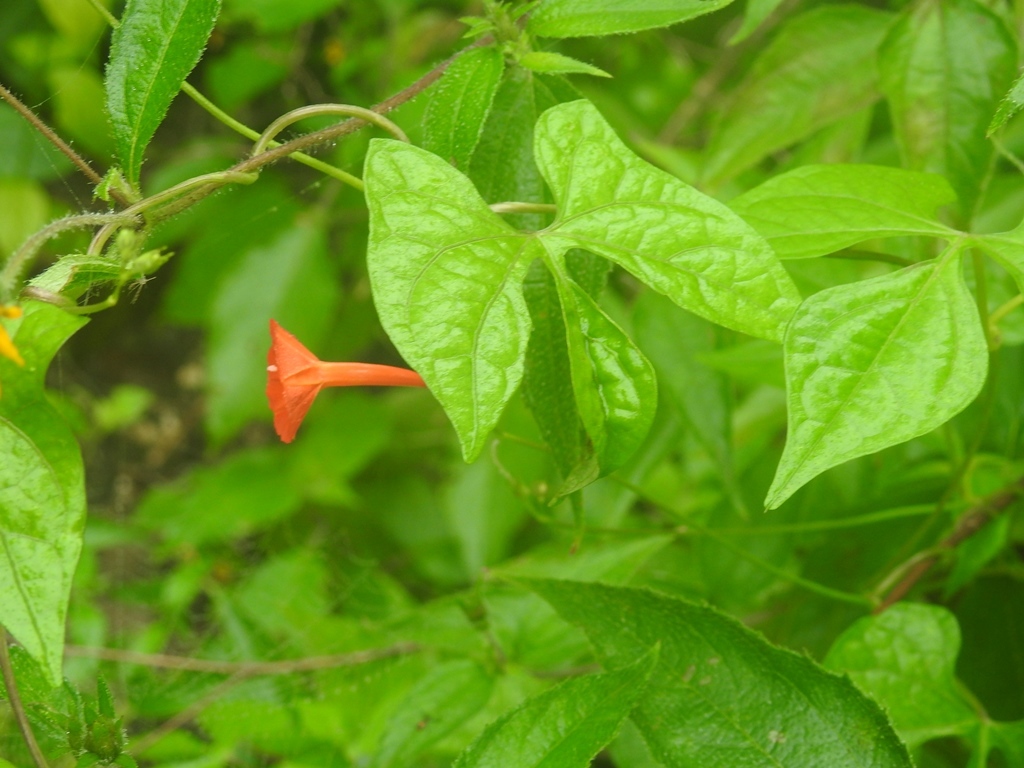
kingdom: Plantae
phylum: Tracheophyta
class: Magnoliopsida
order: Solanales
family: Convolvulaceae
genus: Ipomoea
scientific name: Ipomoea hederifolia
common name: Ivy-leaf morning-glory
